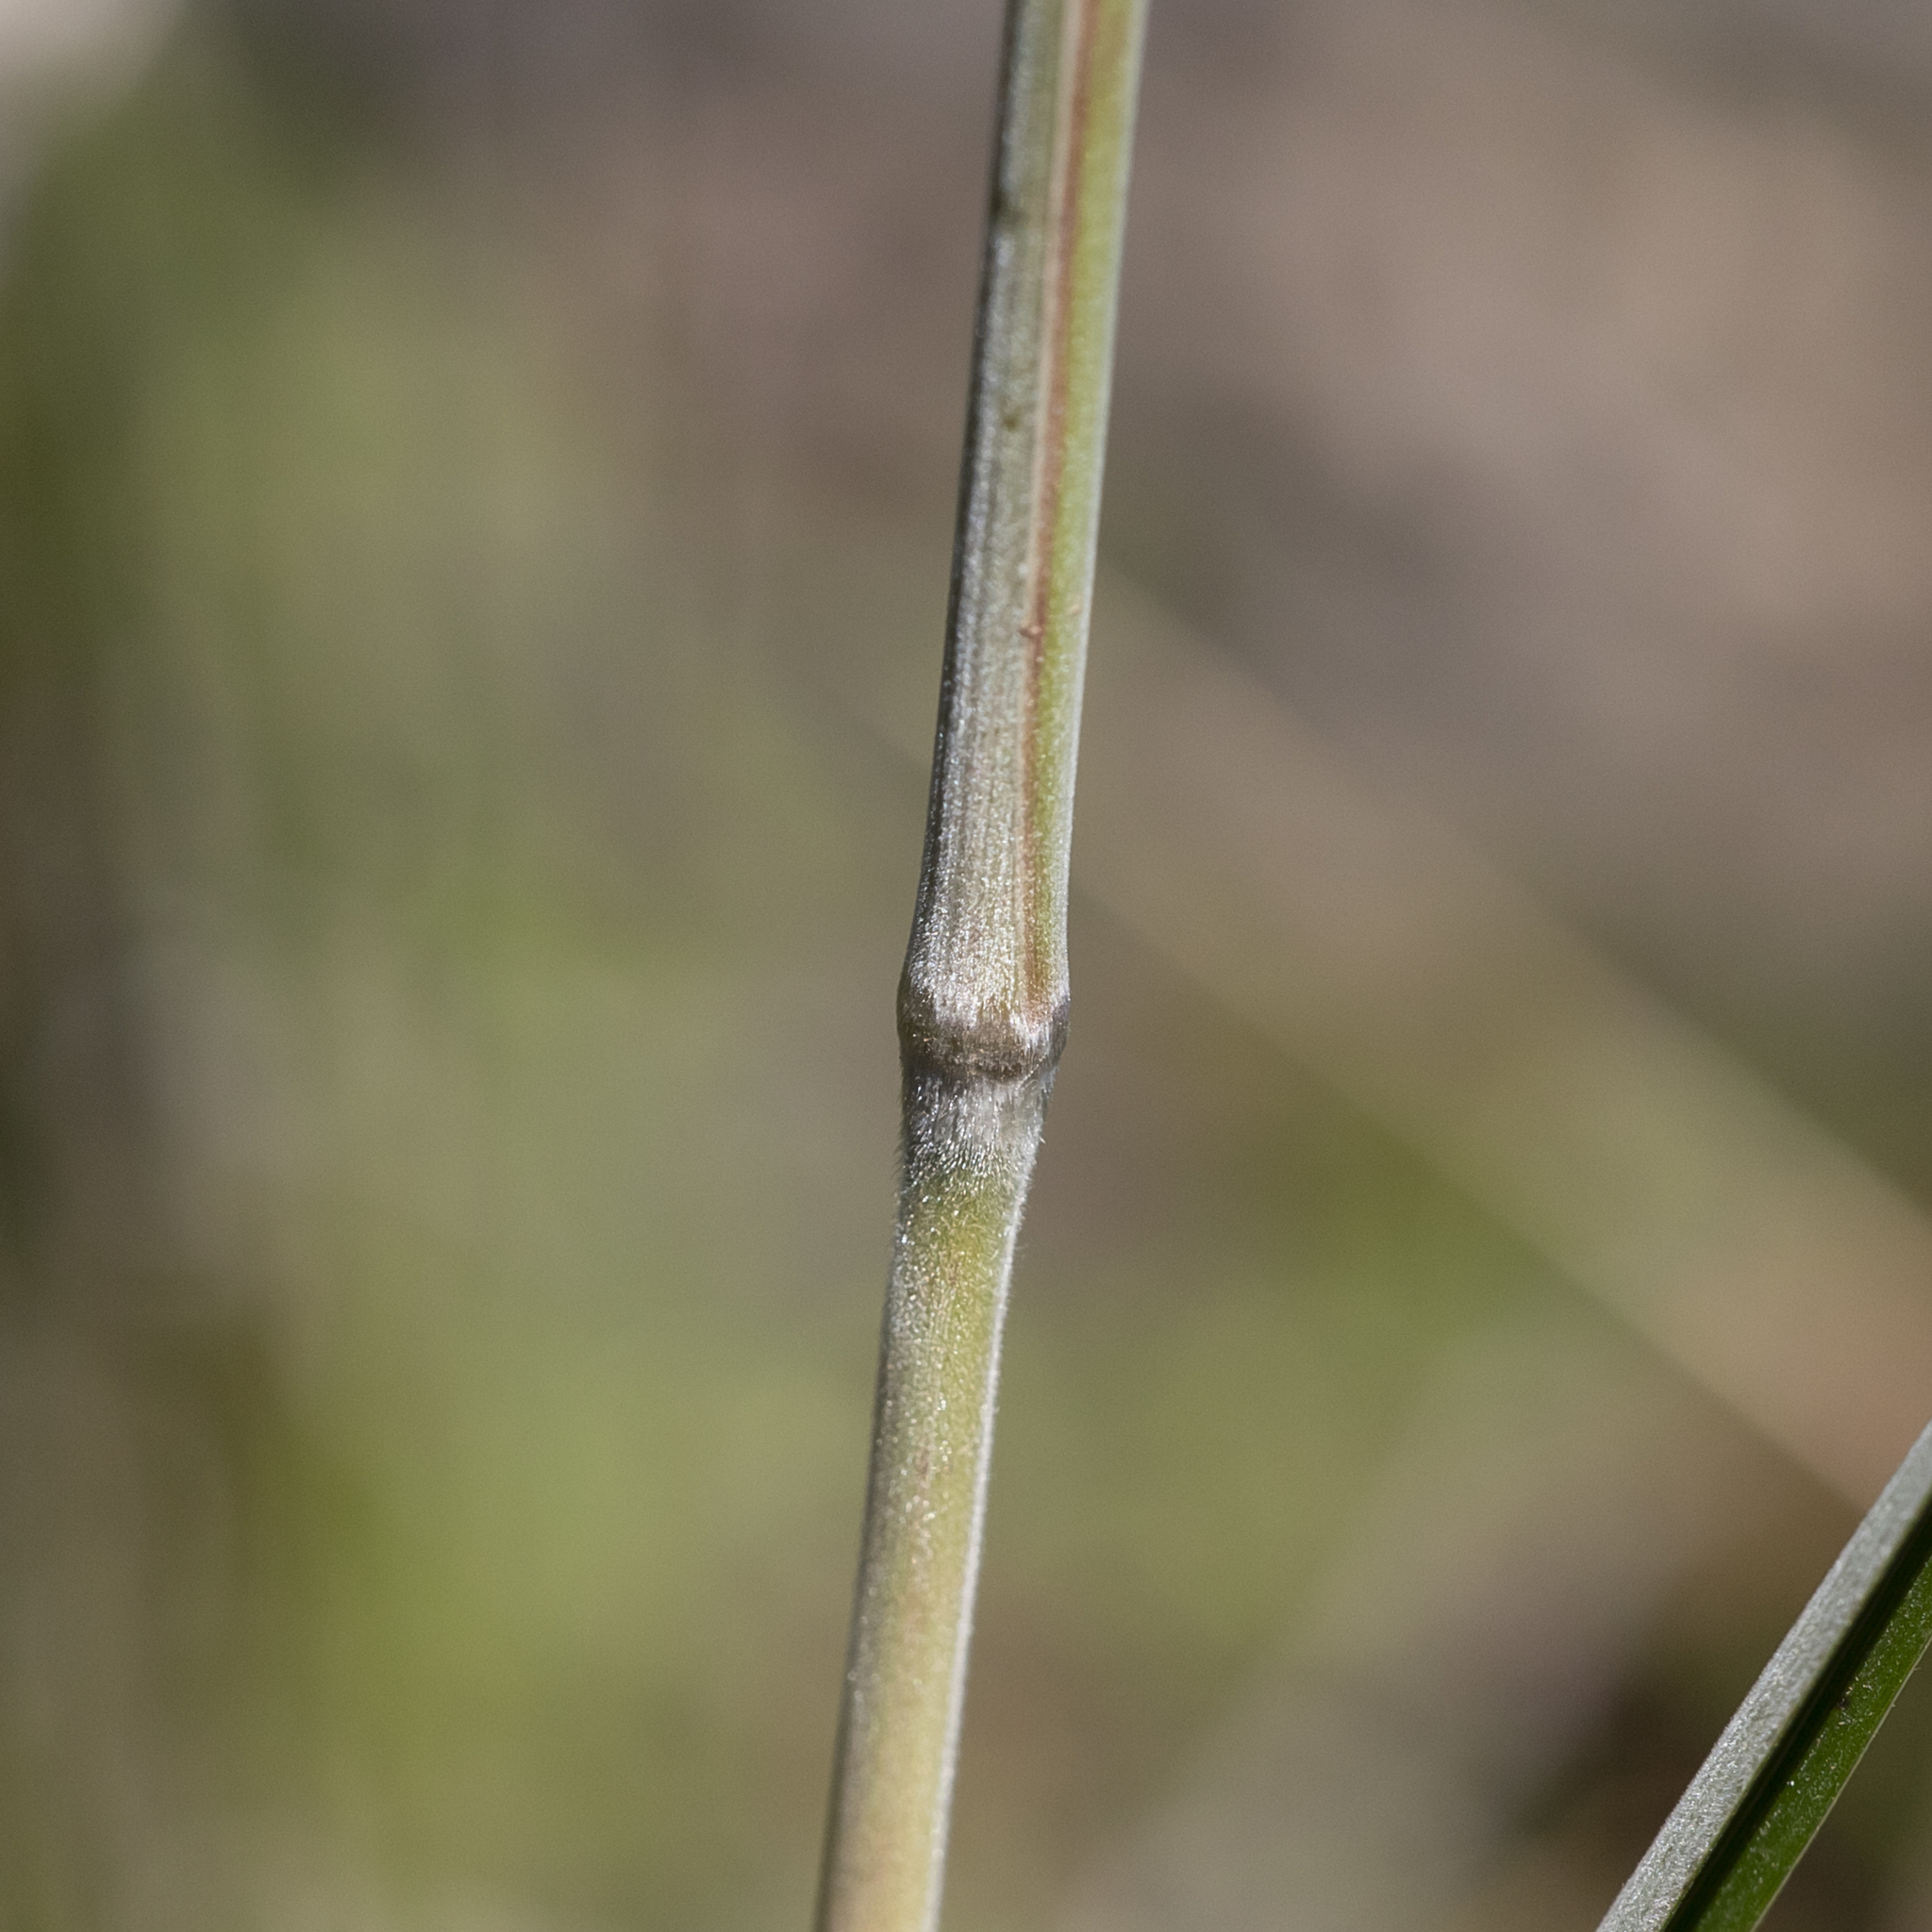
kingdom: Plantae
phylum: Tracheophyta
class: Liliopsida
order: Poales
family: Poaceae
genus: Austrostipa
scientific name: Austrostipa mollis
